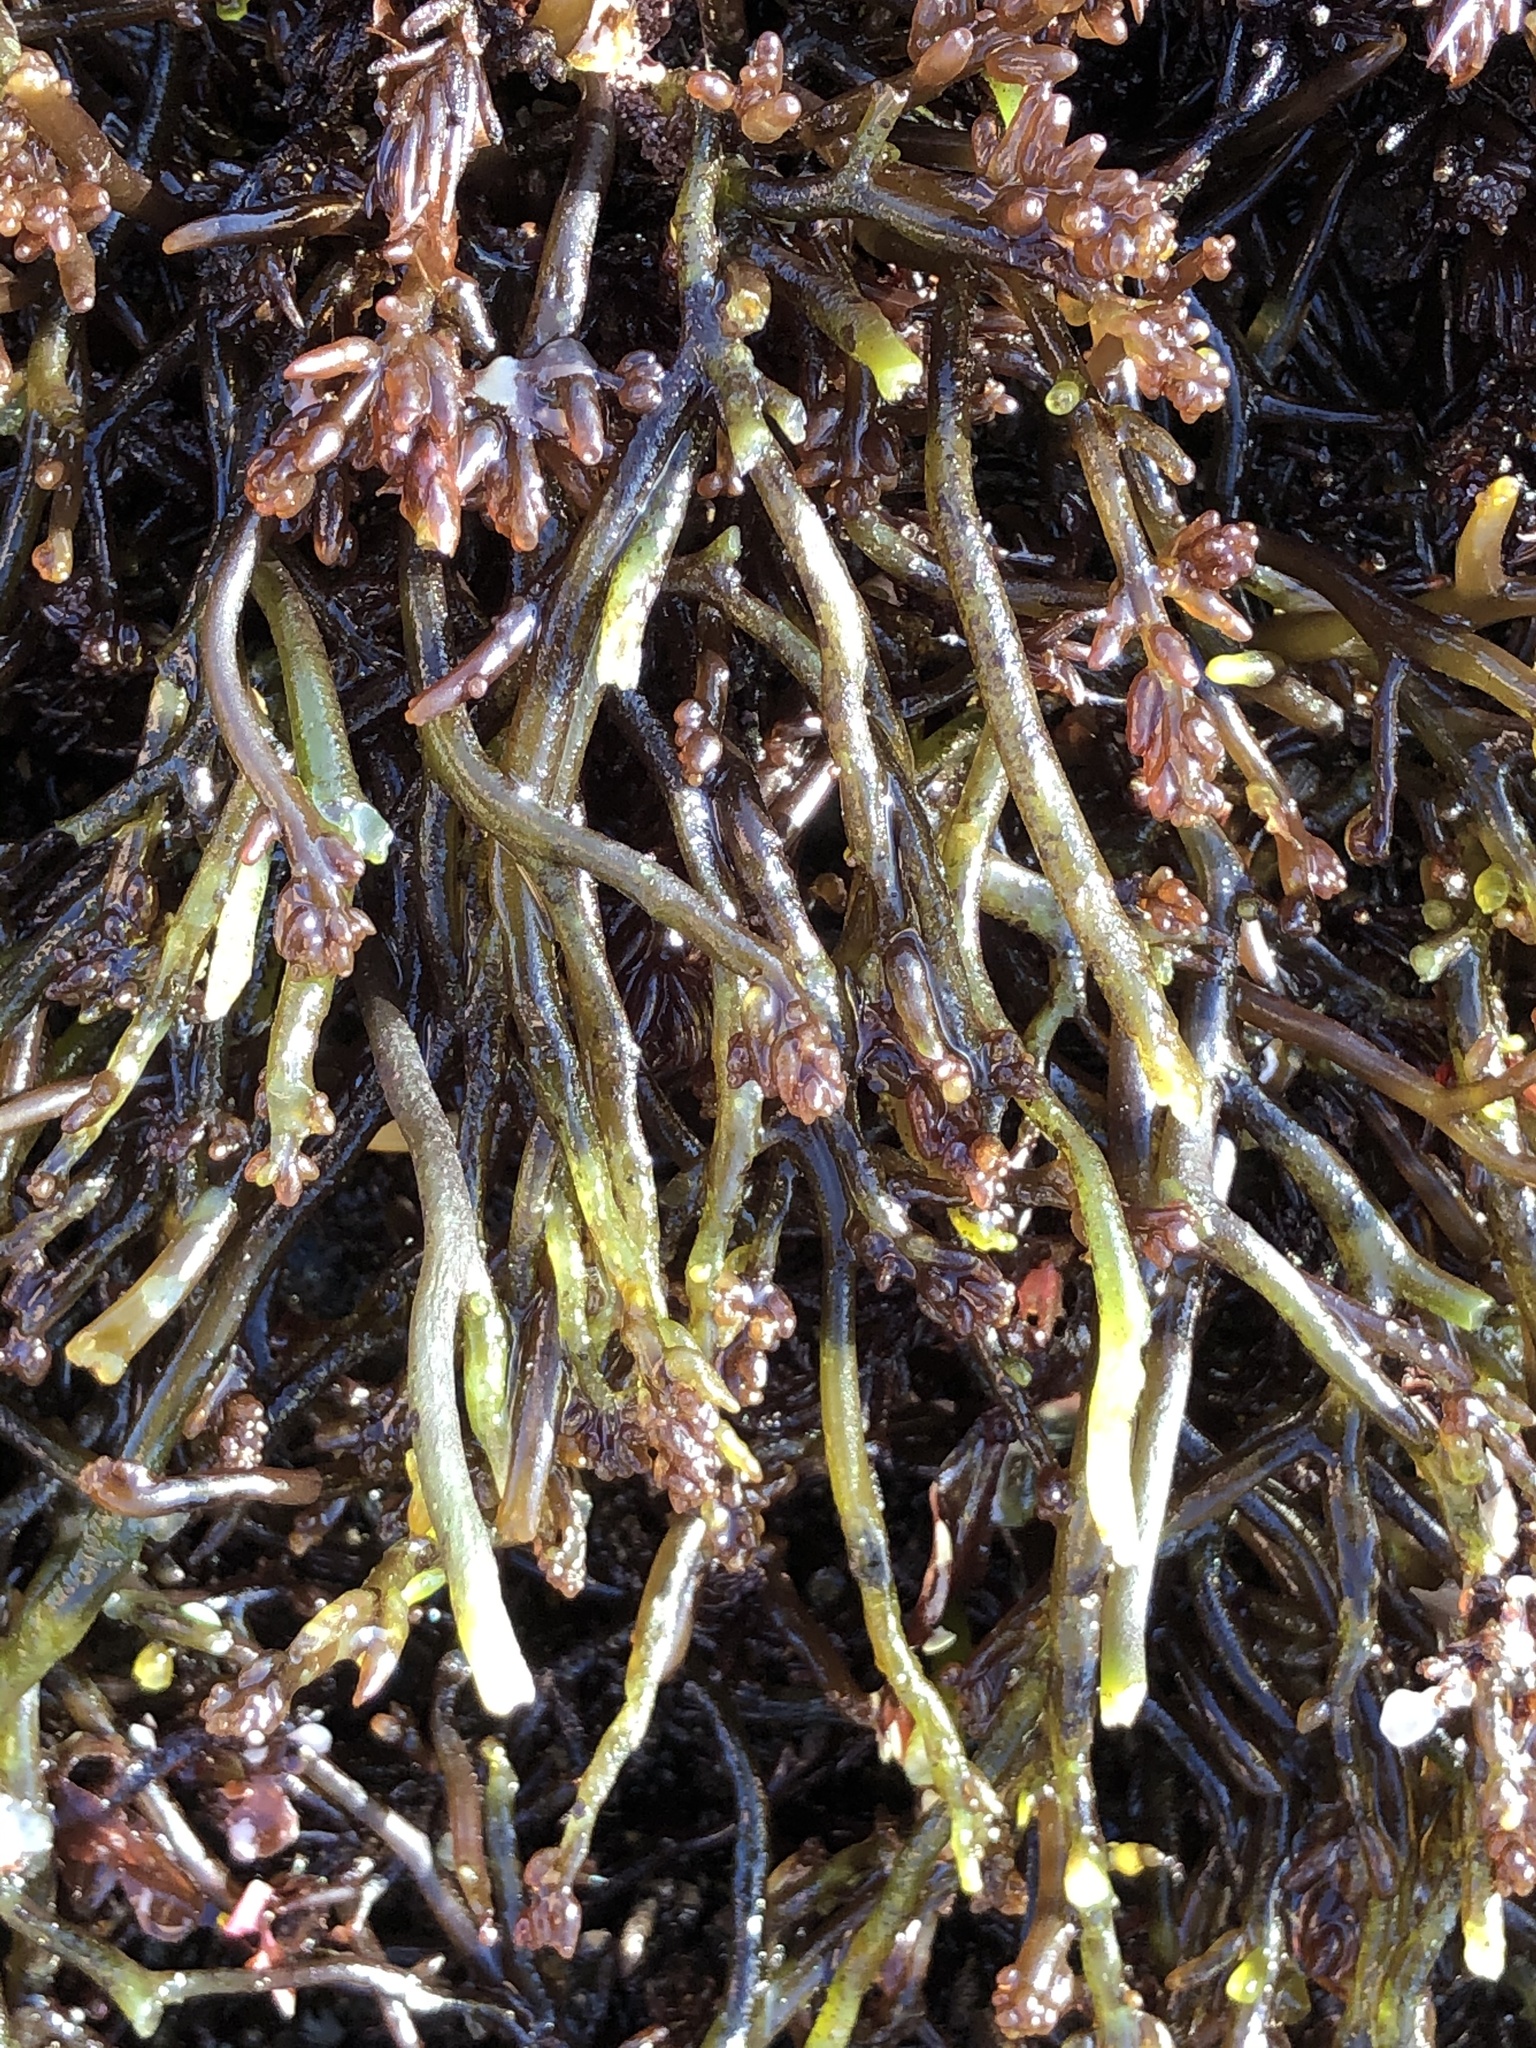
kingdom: Plantae
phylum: Rhodophyta
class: Florideophyceae
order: Rhodymeniales
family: Champiaceae
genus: Neogastroclonium
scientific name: Neogastroclonium subarticulatum
